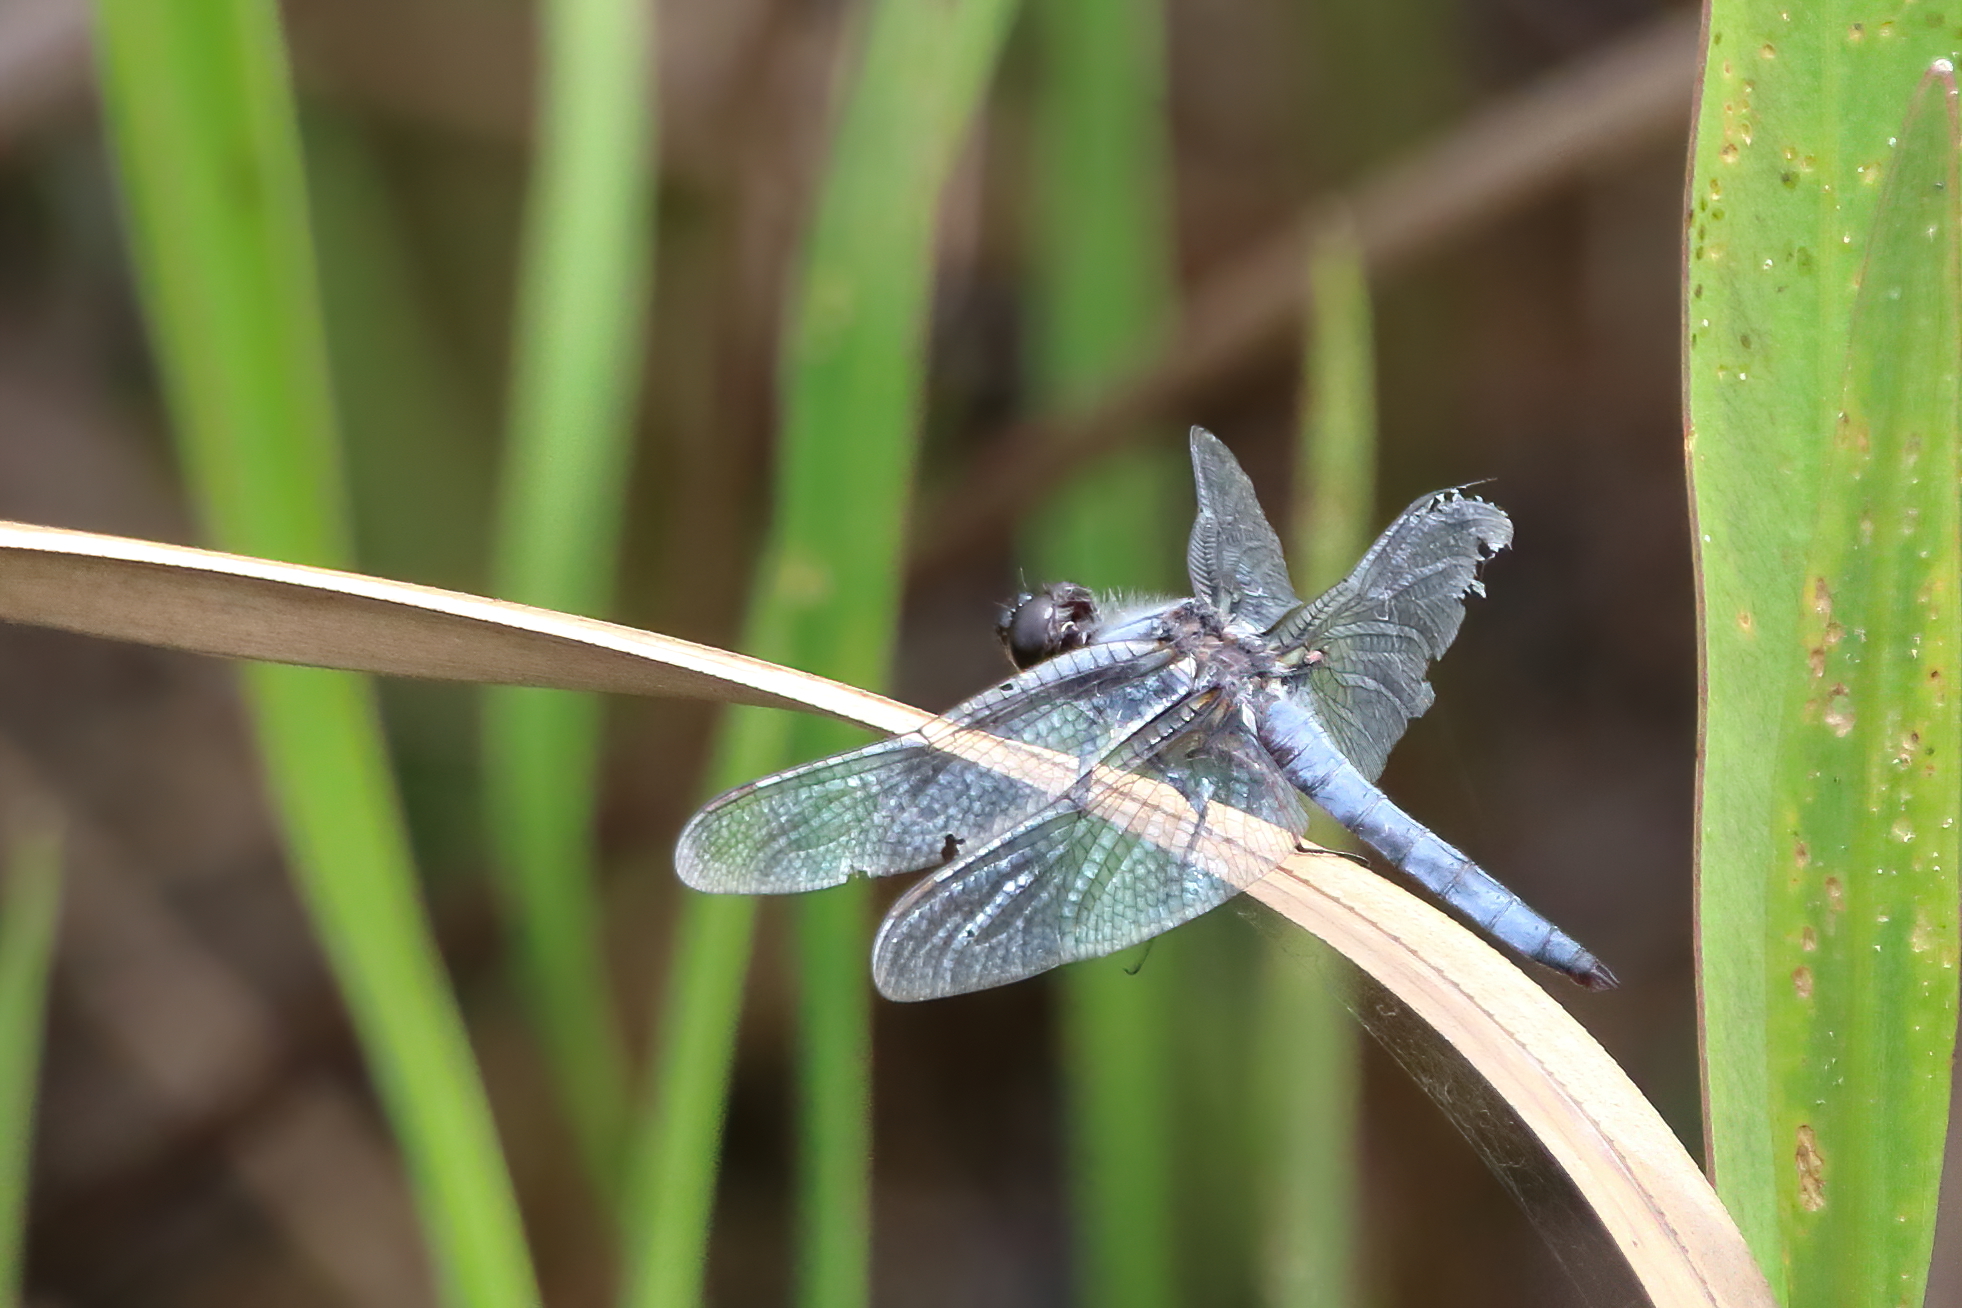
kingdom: Animalia
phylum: Arthropoda
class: Insecta
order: Odonata
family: Libellulidae
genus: Ladona
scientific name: Ladona deplanata
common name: Blue corporal
